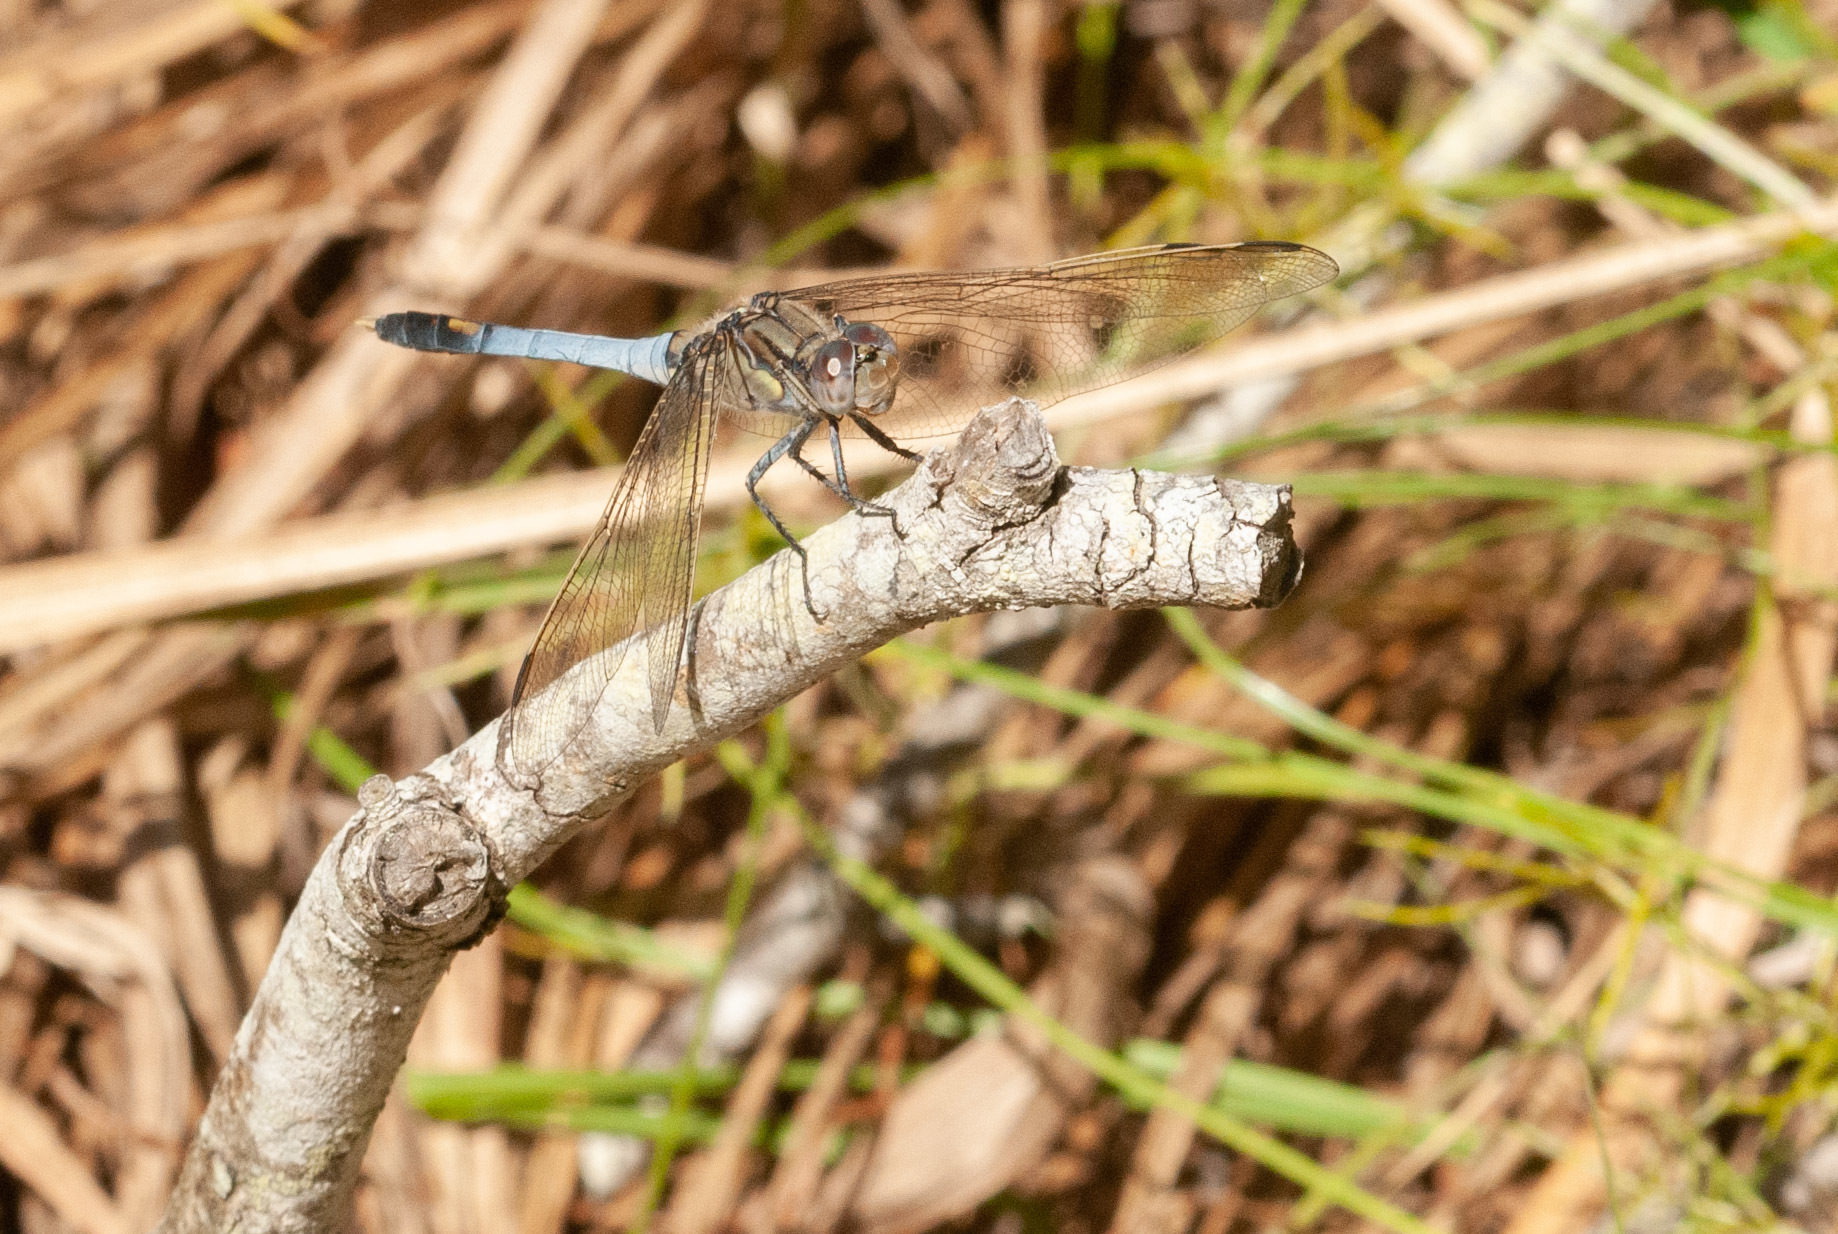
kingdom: Animalia
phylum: Arthropoda
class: Insecta
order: Odonata
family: Libellulidae
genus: Orthetrum
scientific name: Orthetrum caledonicum
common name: Blue skimmer
